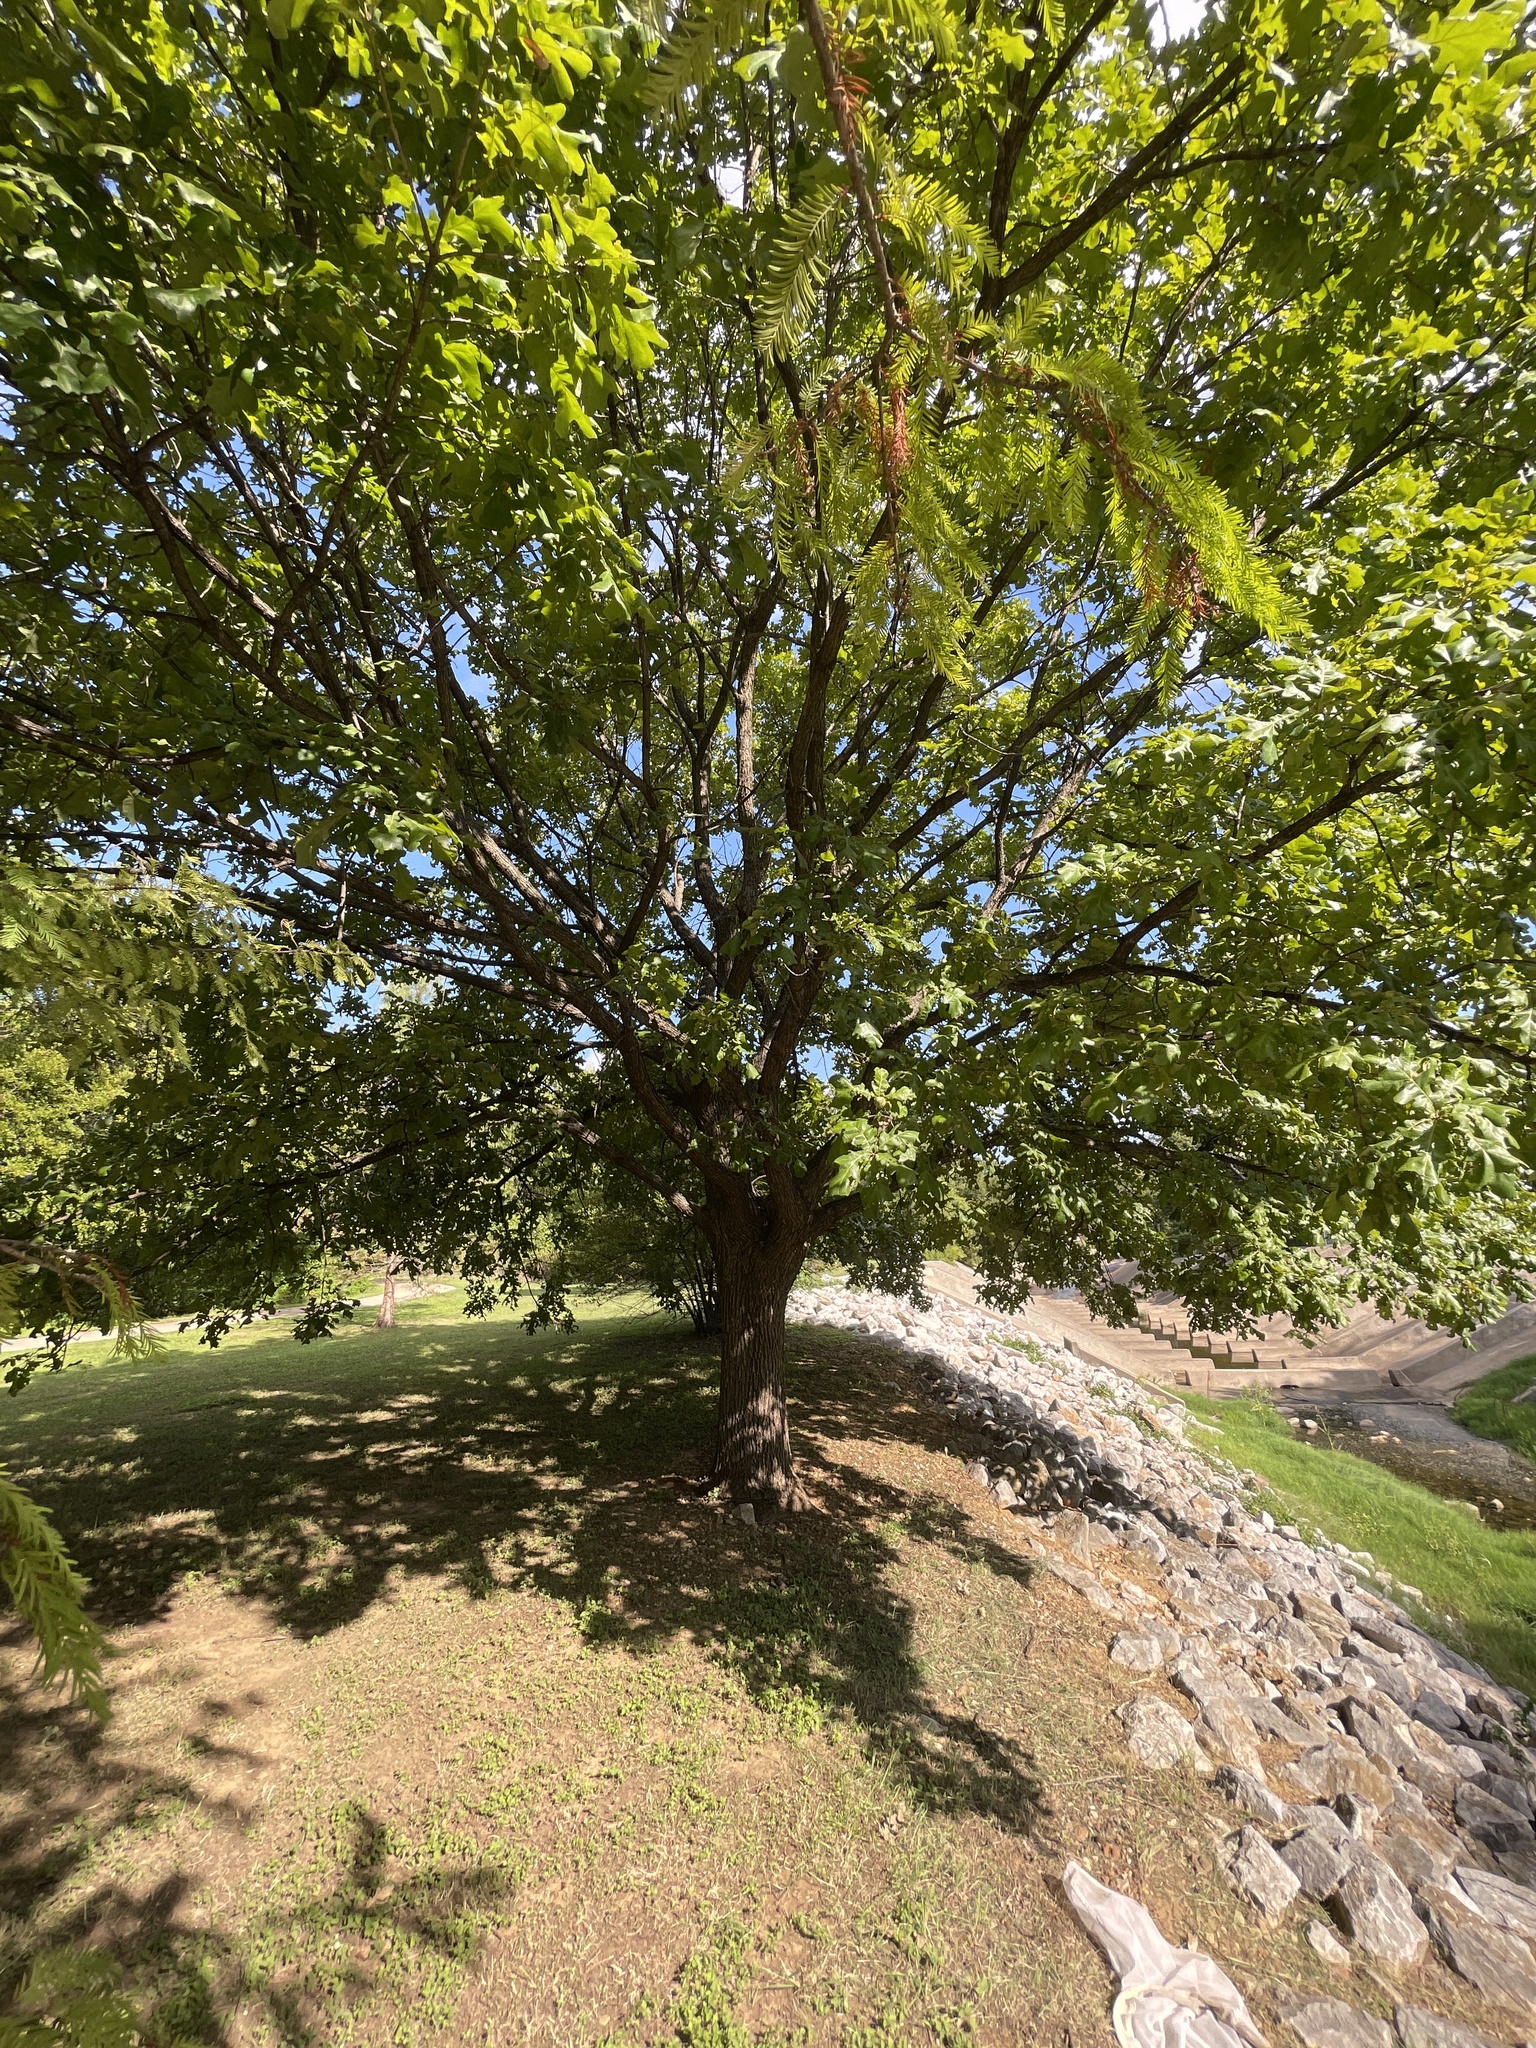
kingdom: Plantae
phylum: Tracheophyta
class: Magnoliopsida
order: Fagales
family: Fagaceae
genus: Quercus
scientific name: Quercus macrocarpa
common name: Bur oak
